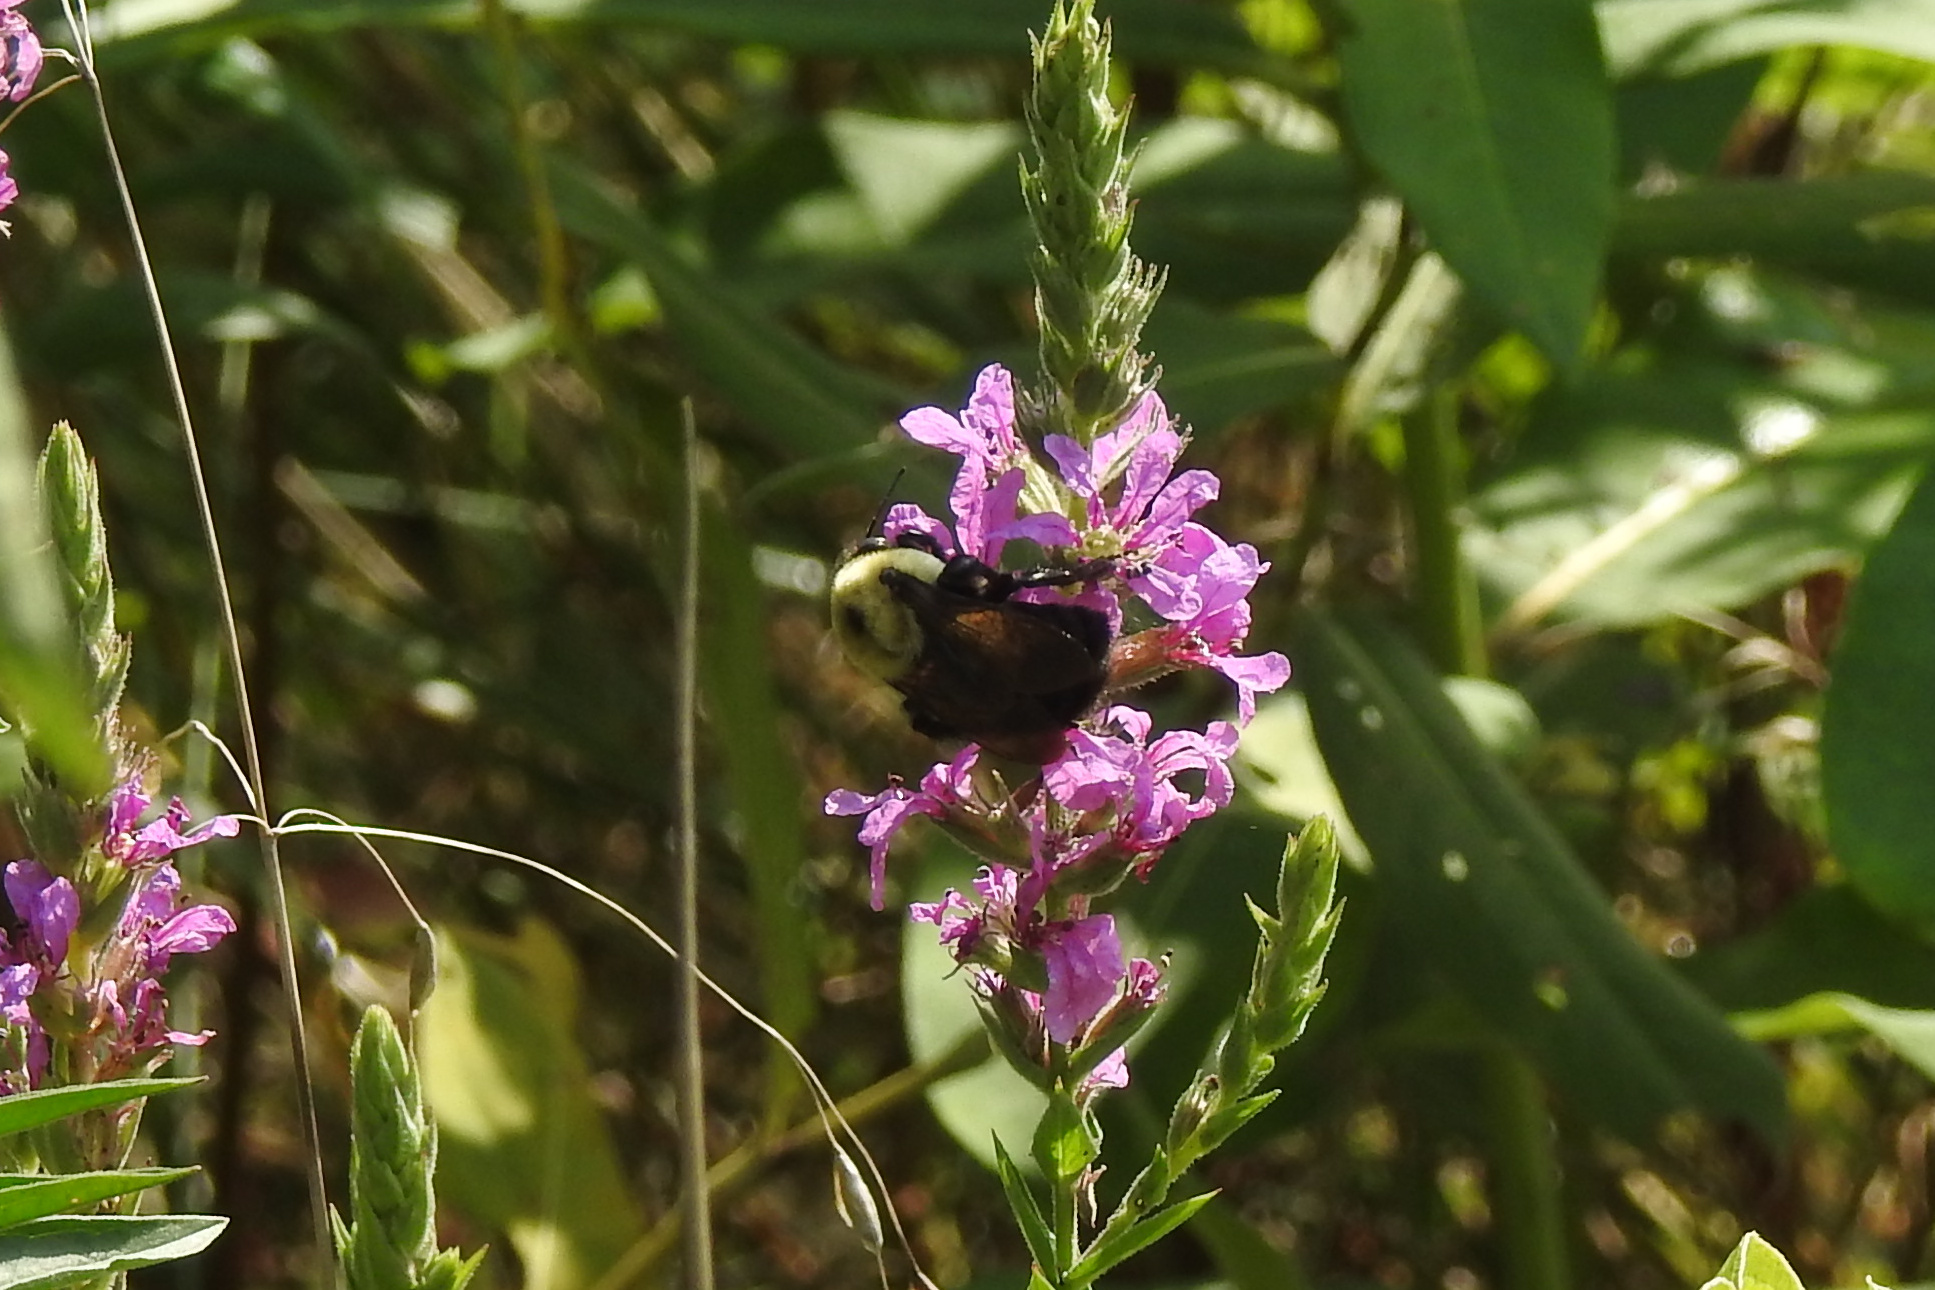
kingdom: Animalia
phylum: Arthropoda
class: Insecta
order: Hymenoptera
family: Apidae
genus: Bombus
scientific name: Bombus griseocollis
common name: Brown-belted bumble bee
